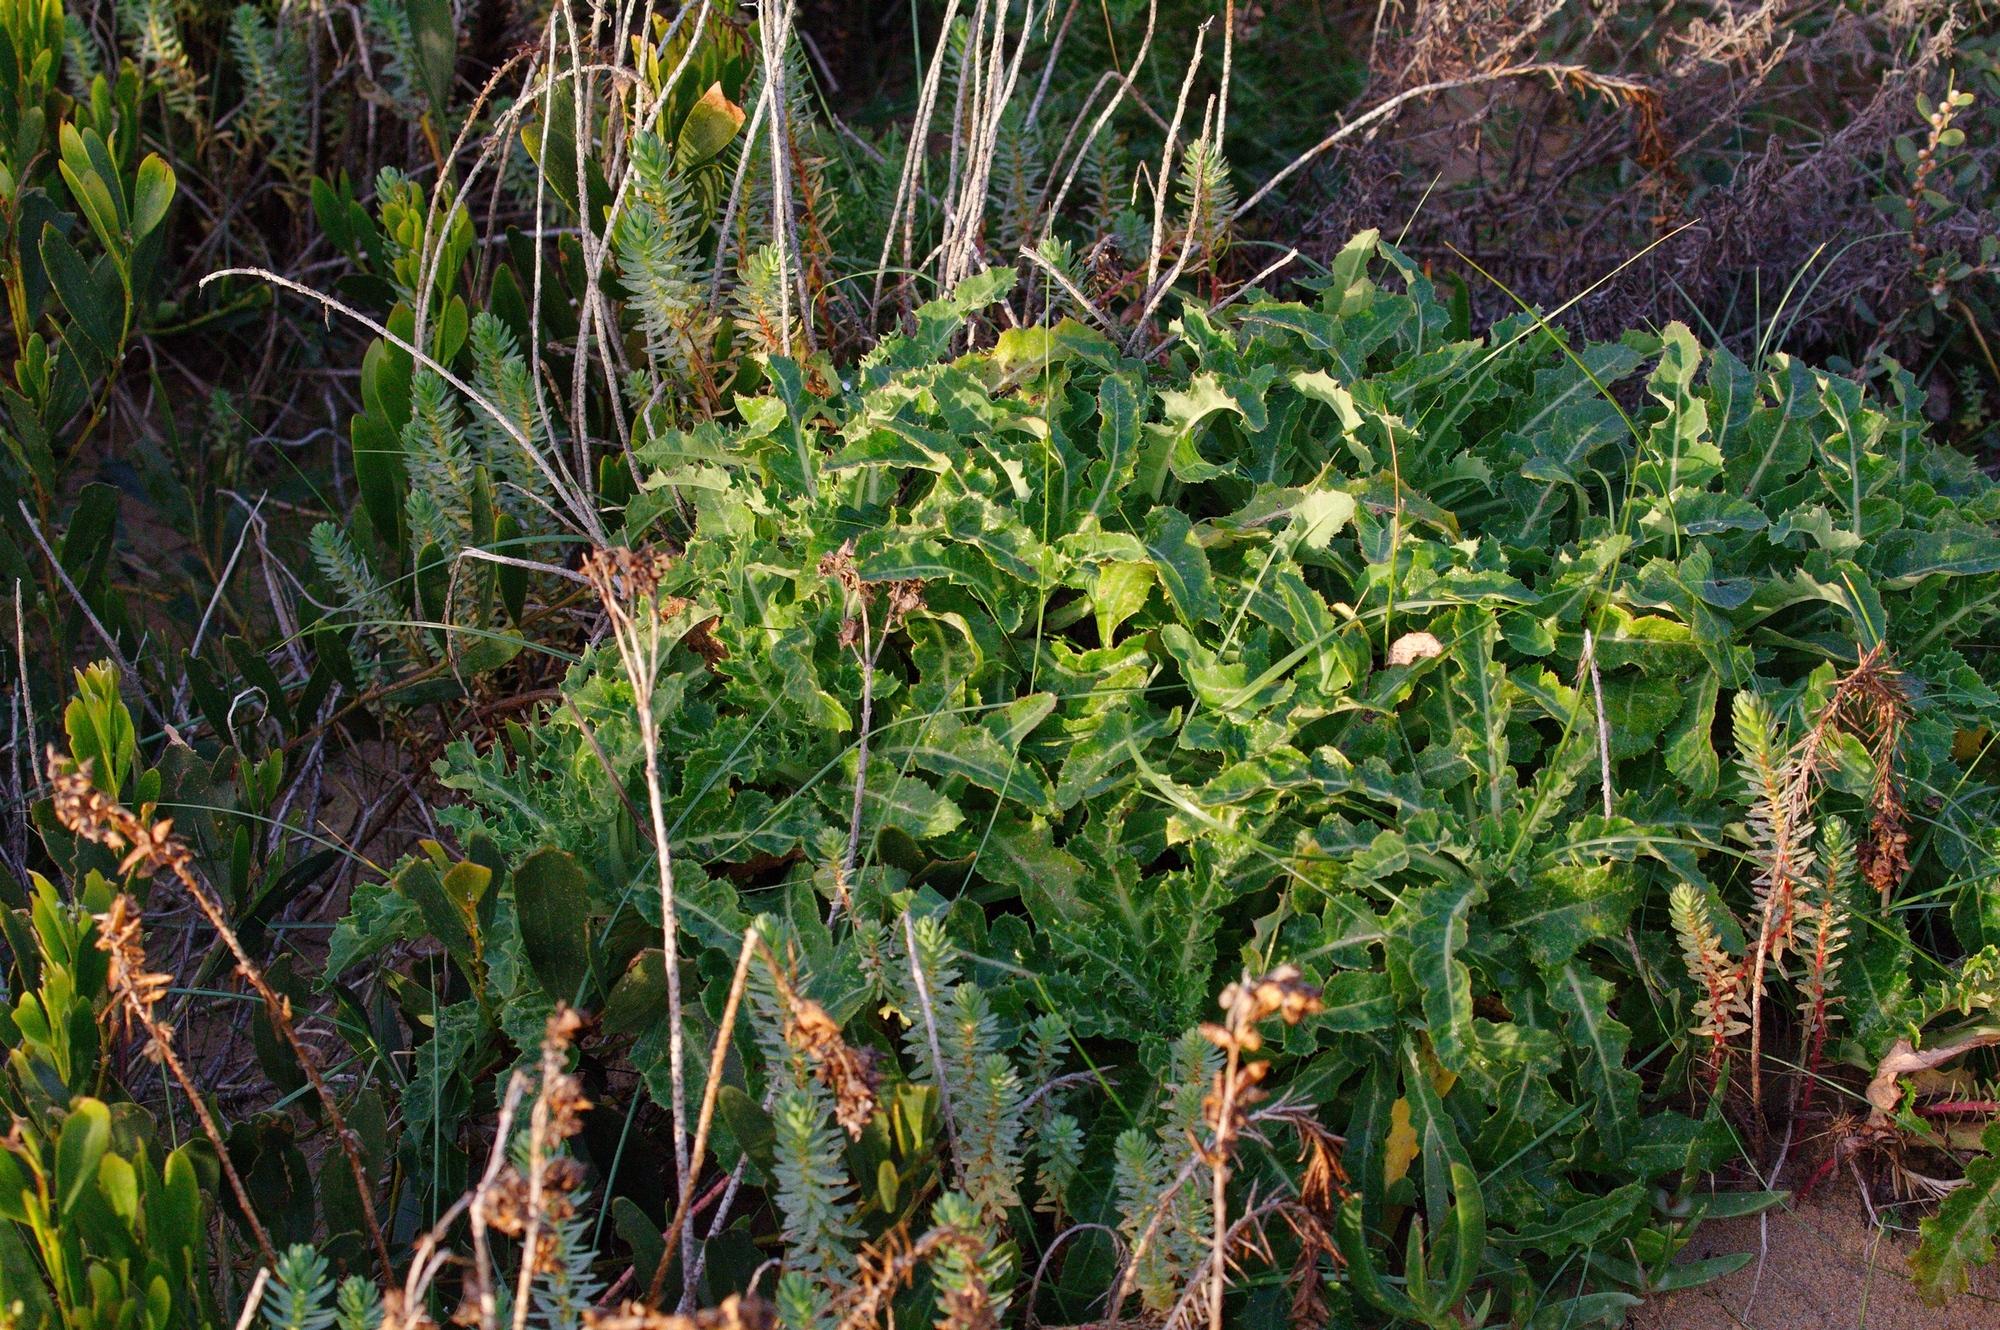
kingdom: Plantae
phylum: Tracheophyta
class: Magnoliopsida
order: Asterales
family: Asteraceae
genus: Sonchus
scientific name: Sonchus megalocarpus
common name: Dune thistle
